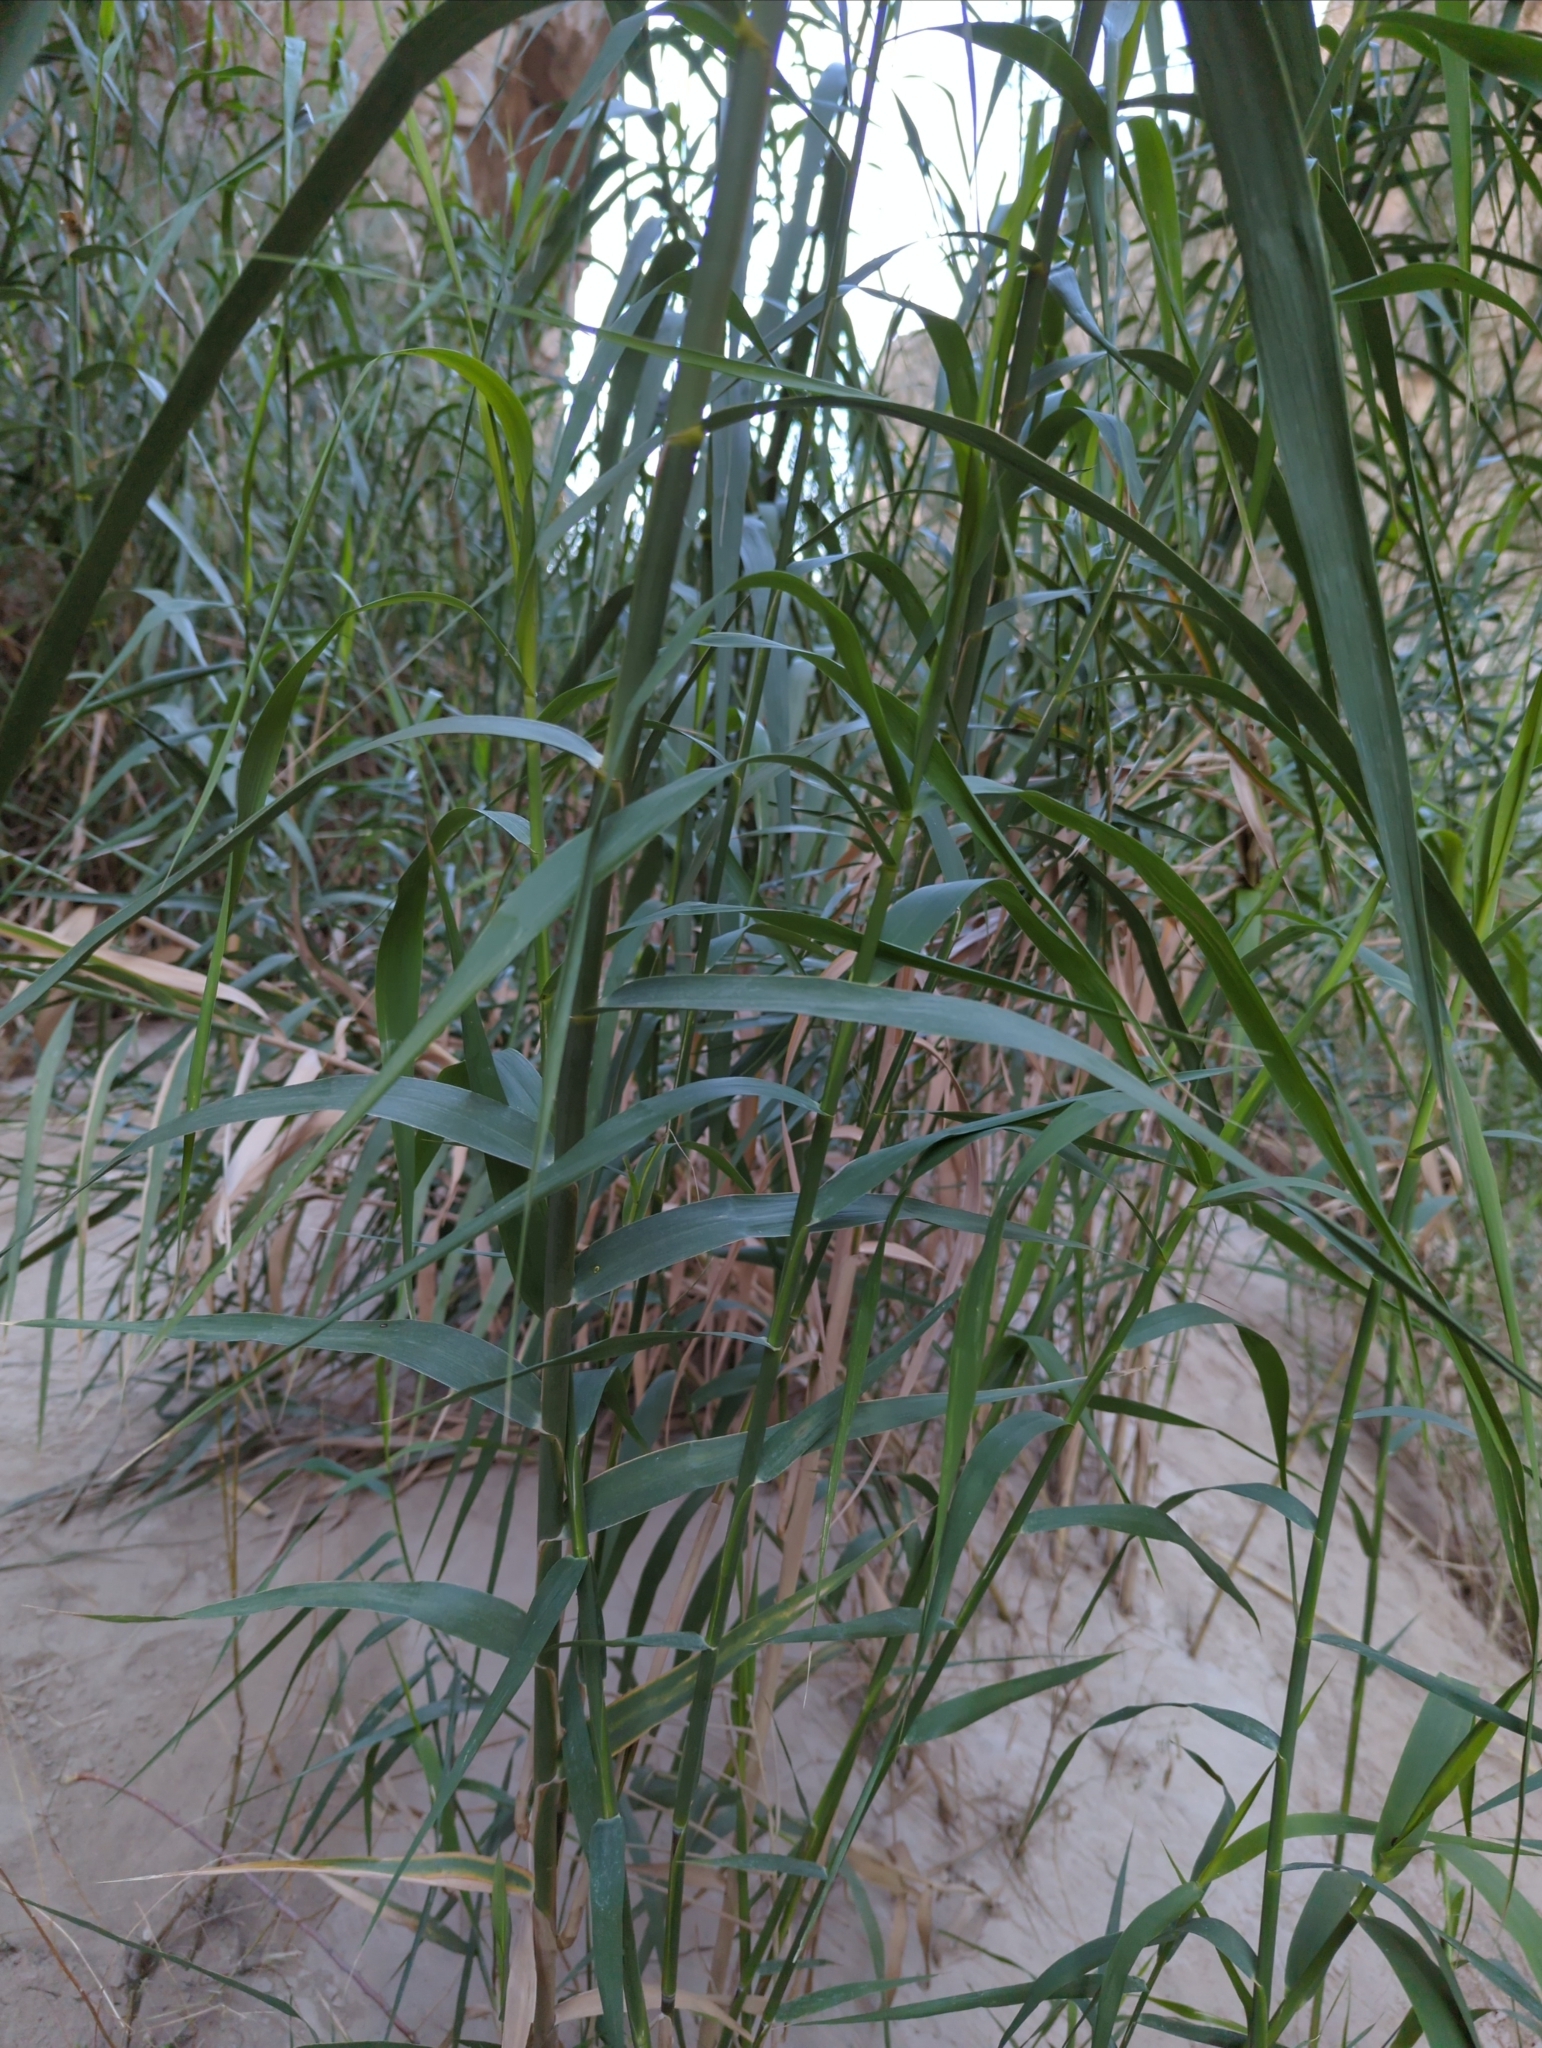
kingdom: Plantae
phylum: Tracheophyta
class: Liliopsida
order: Poales
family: Poaceae
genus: Arundo
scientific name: Arundo donax
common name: Giant reed
